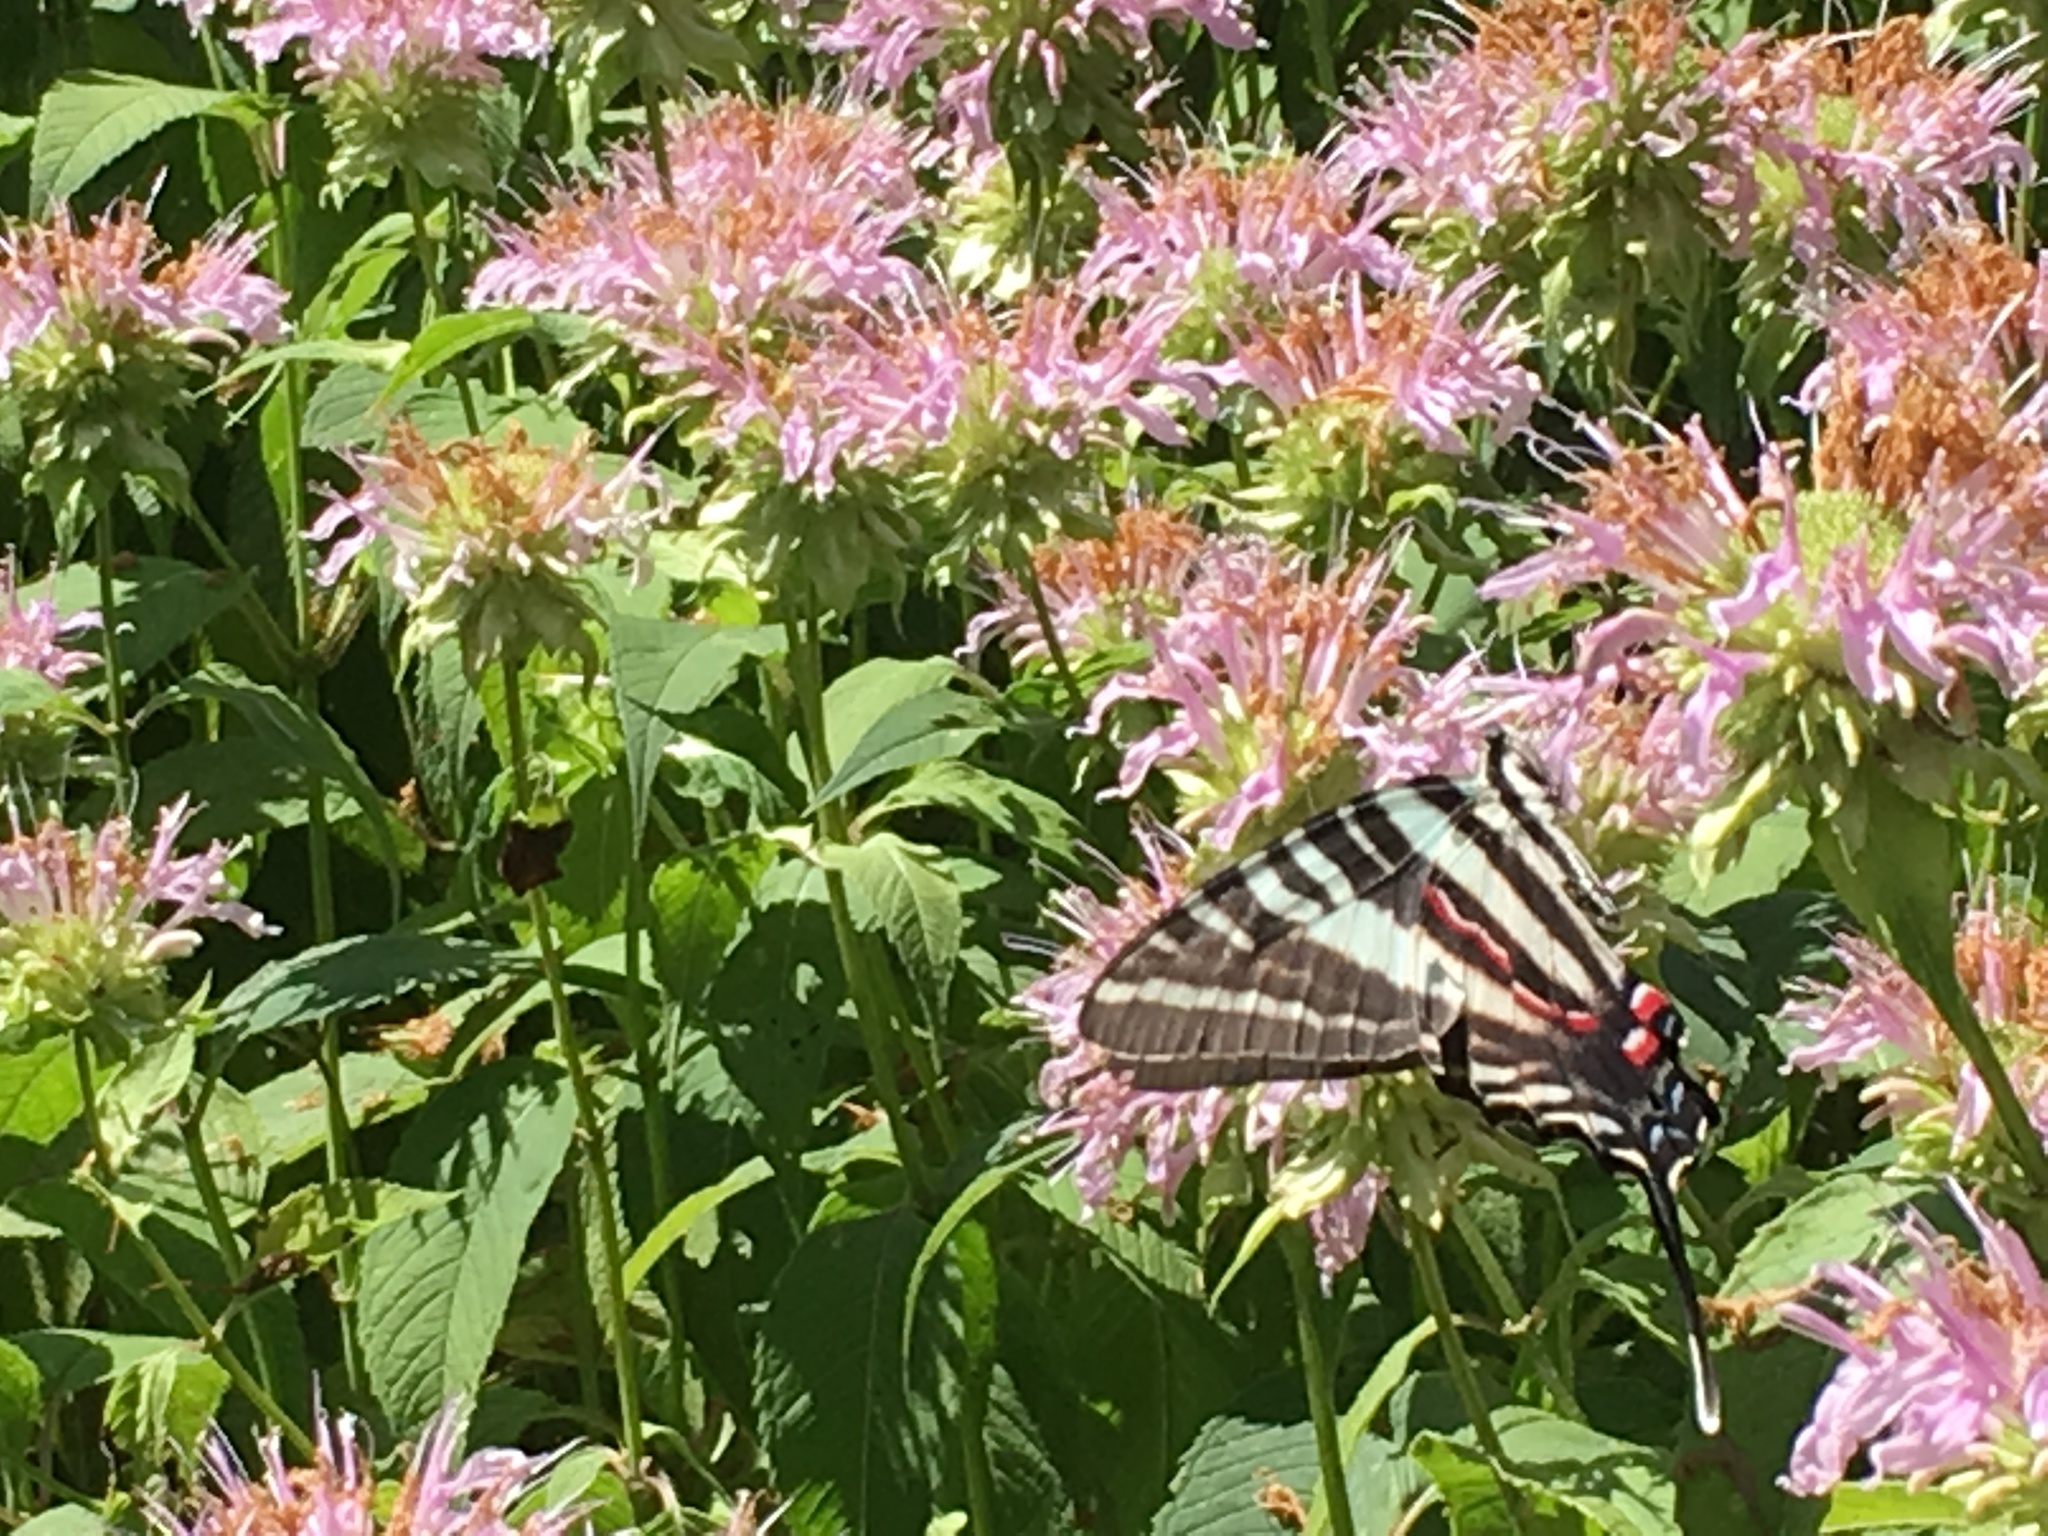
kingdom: Animalia
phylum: Arthropoda
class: Insecta
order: Lepidoptera
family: Papilionidae
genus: Protographium
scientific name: Protographium marcellus
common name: Zebra swallowtail
